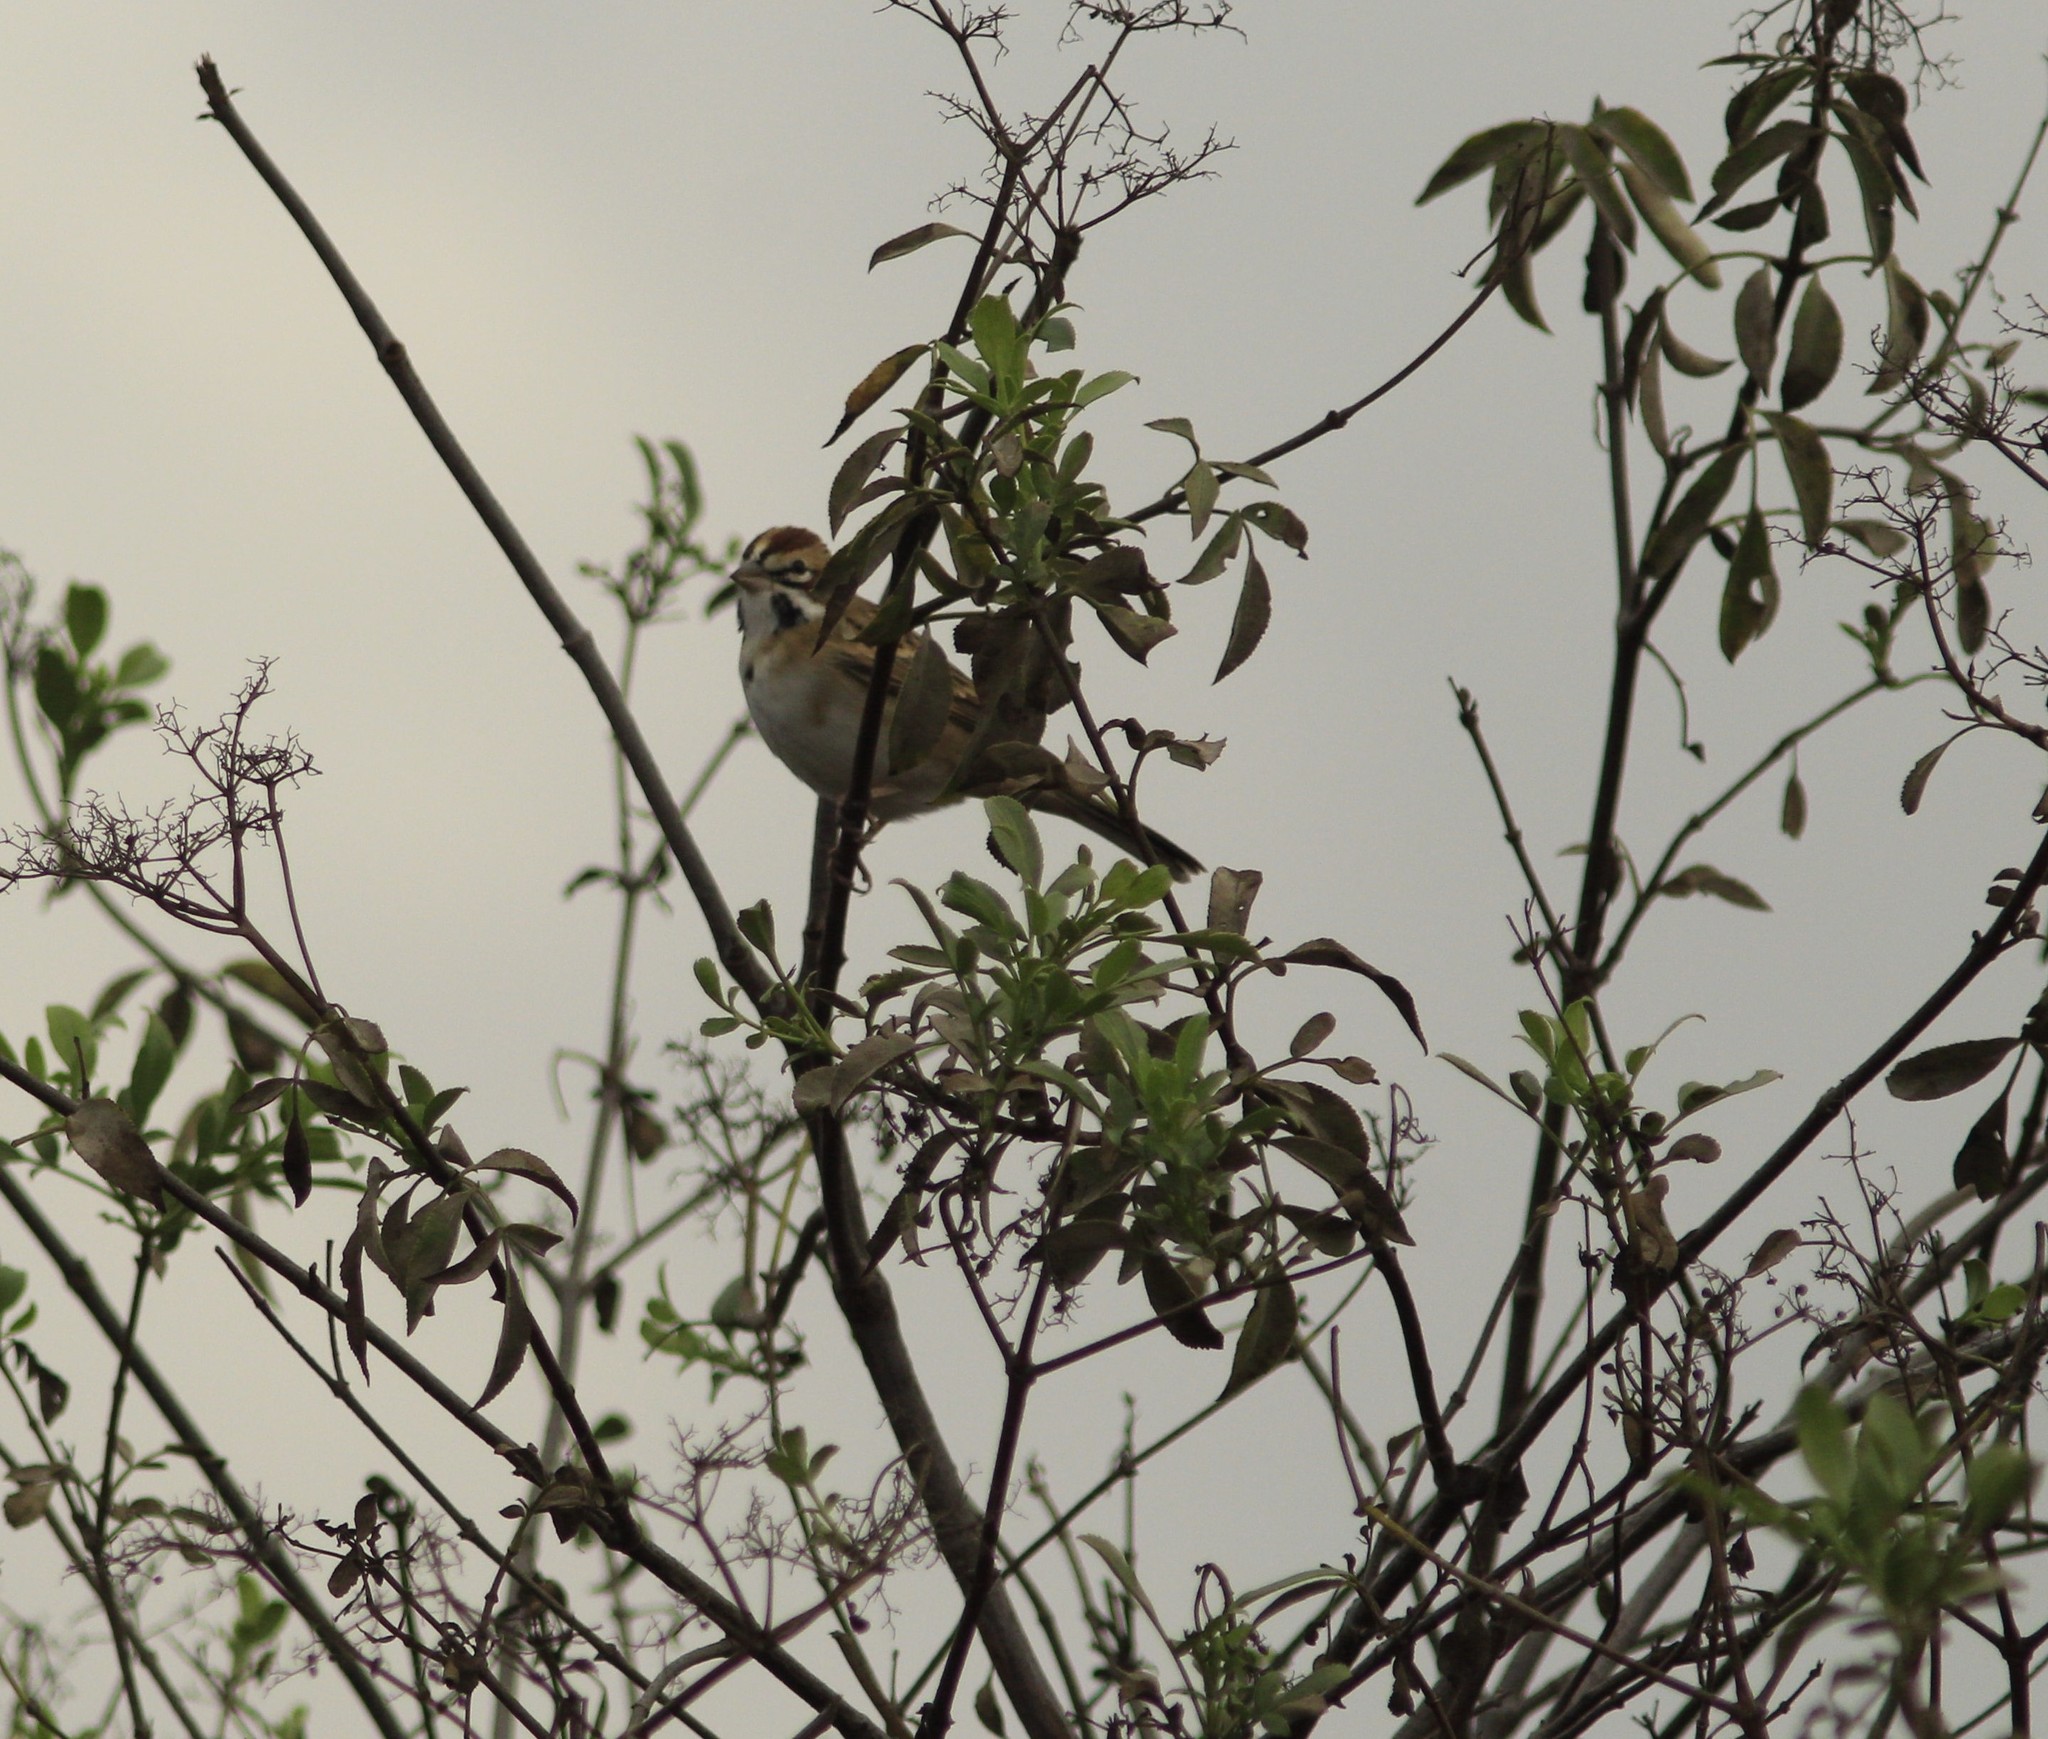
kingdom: Animalia
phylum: Chordata
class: Aves
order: Passeriformes
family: Passerellidae
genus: Chondestes
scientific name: Chondestes grammacus
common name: Lark sparrow
